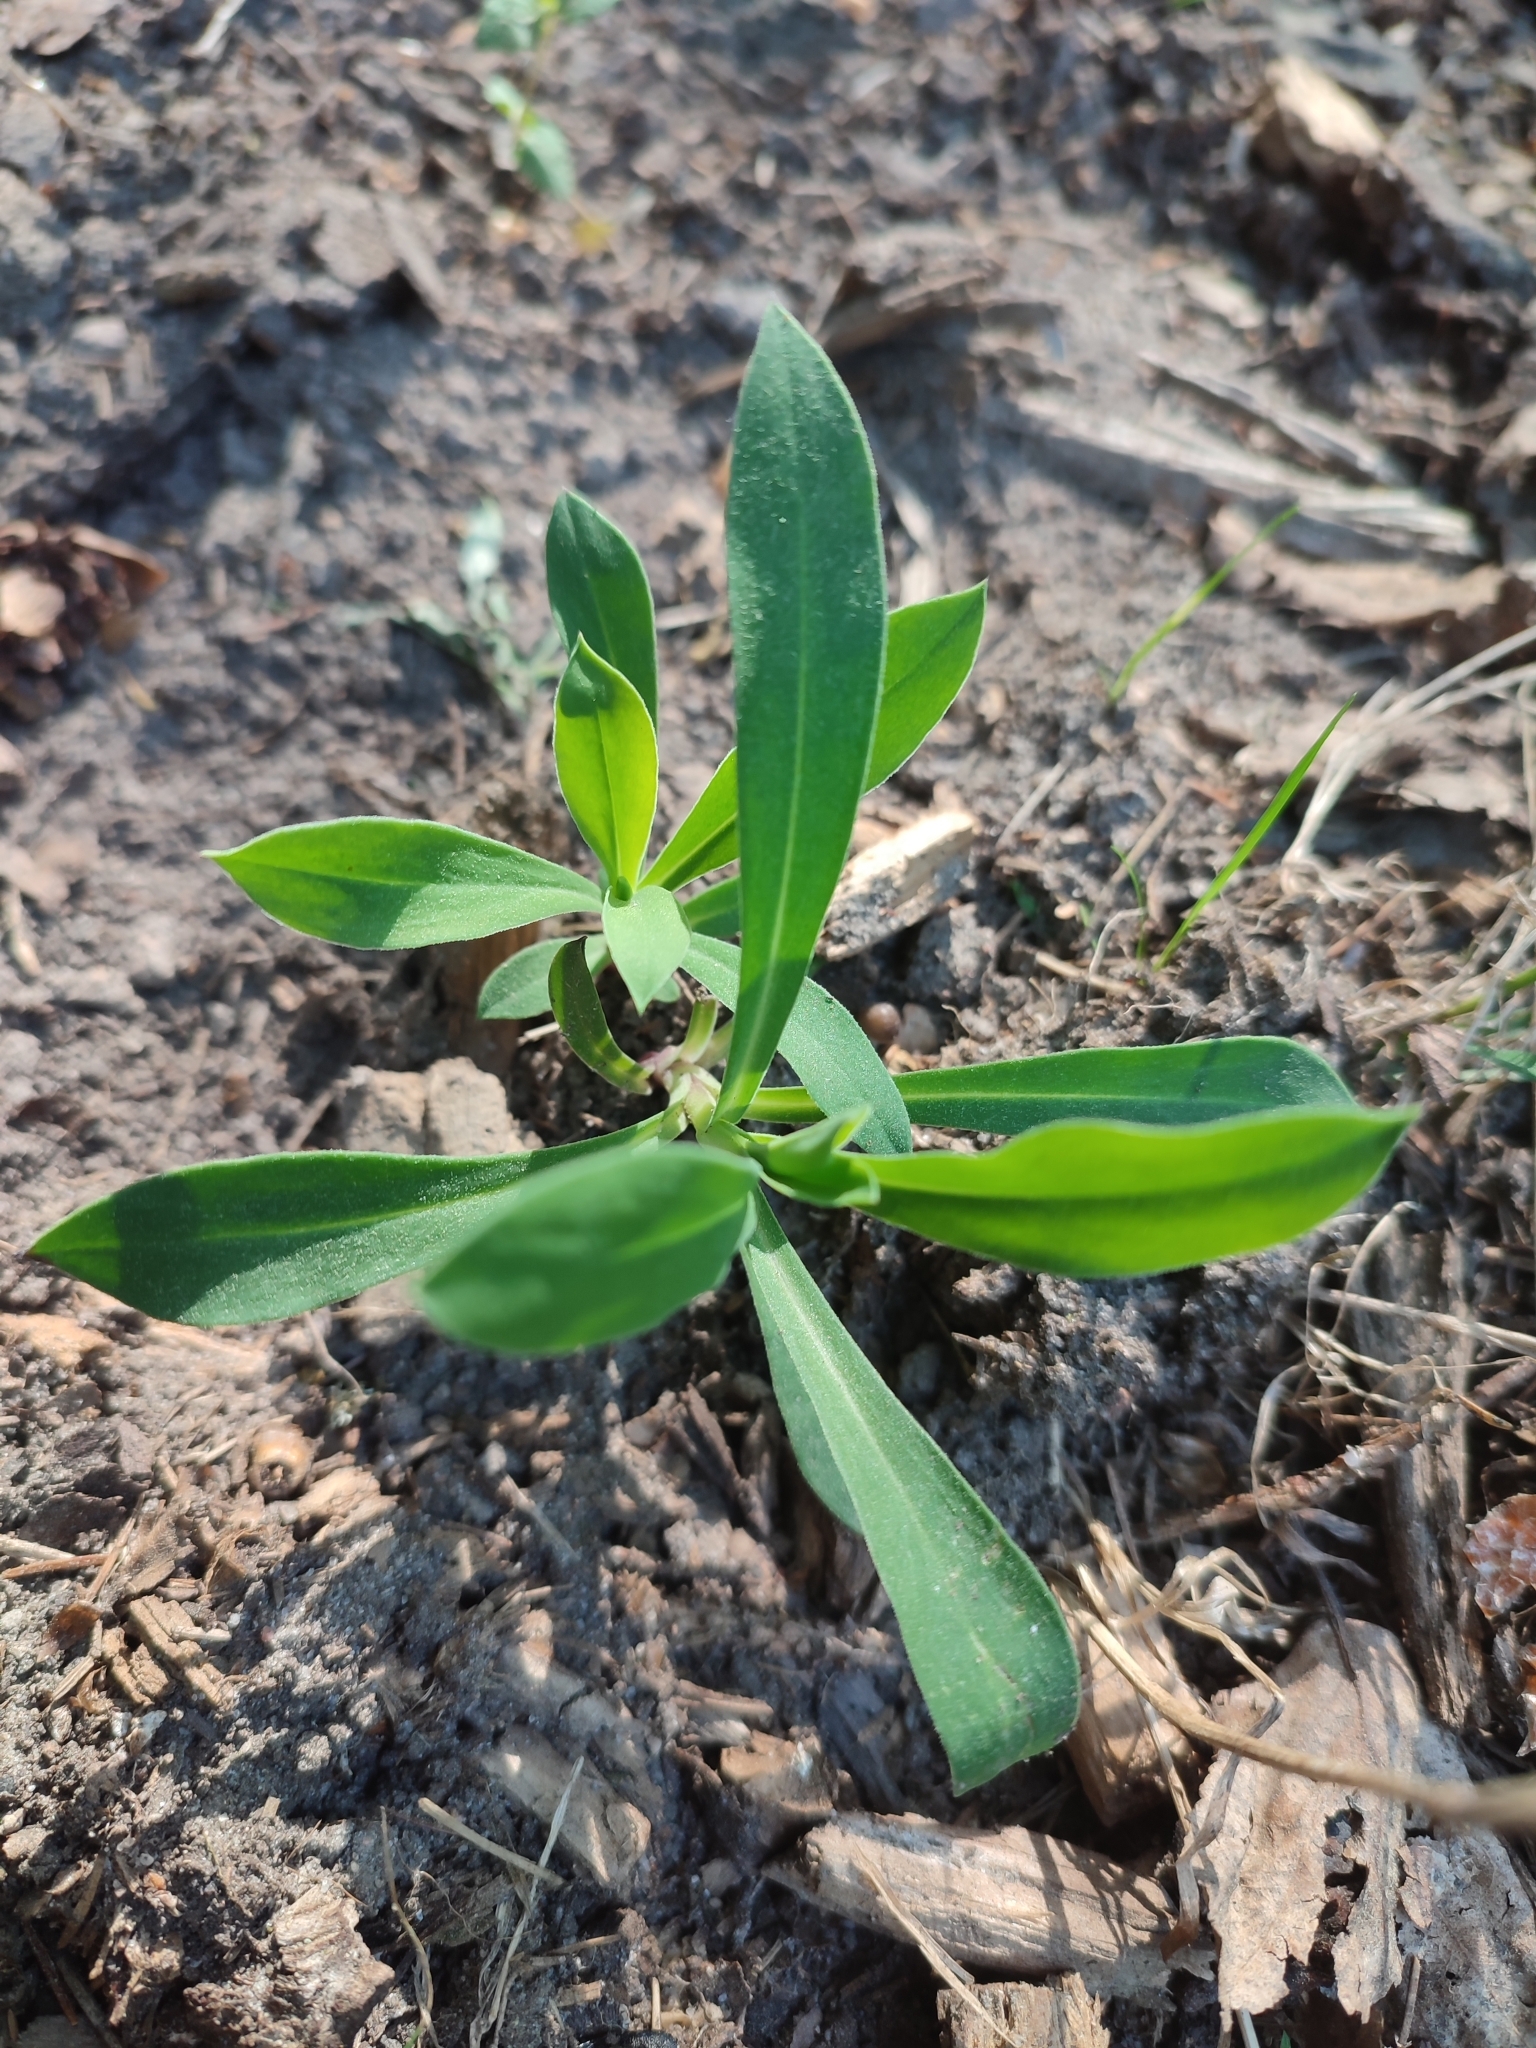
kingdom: Plantae
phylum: Tracheophyta
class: Magnoliopsida
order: Caryophyllales
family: Caryophyllaceae
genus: Silene
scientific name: Silene vulgaris
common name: Bladder campion
